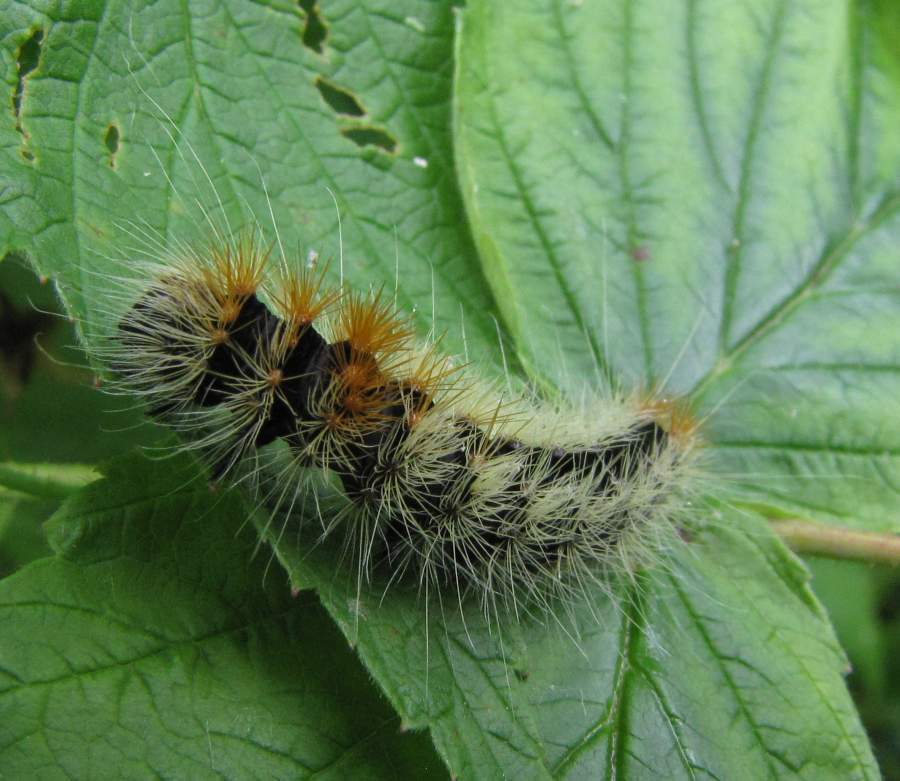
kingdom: Animalia
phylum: Arthropoda
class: Insecta
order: Lepidoptera
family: Noctuidae
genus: Acronicta
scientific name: Acronicta impressa
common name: Impressed dagger
